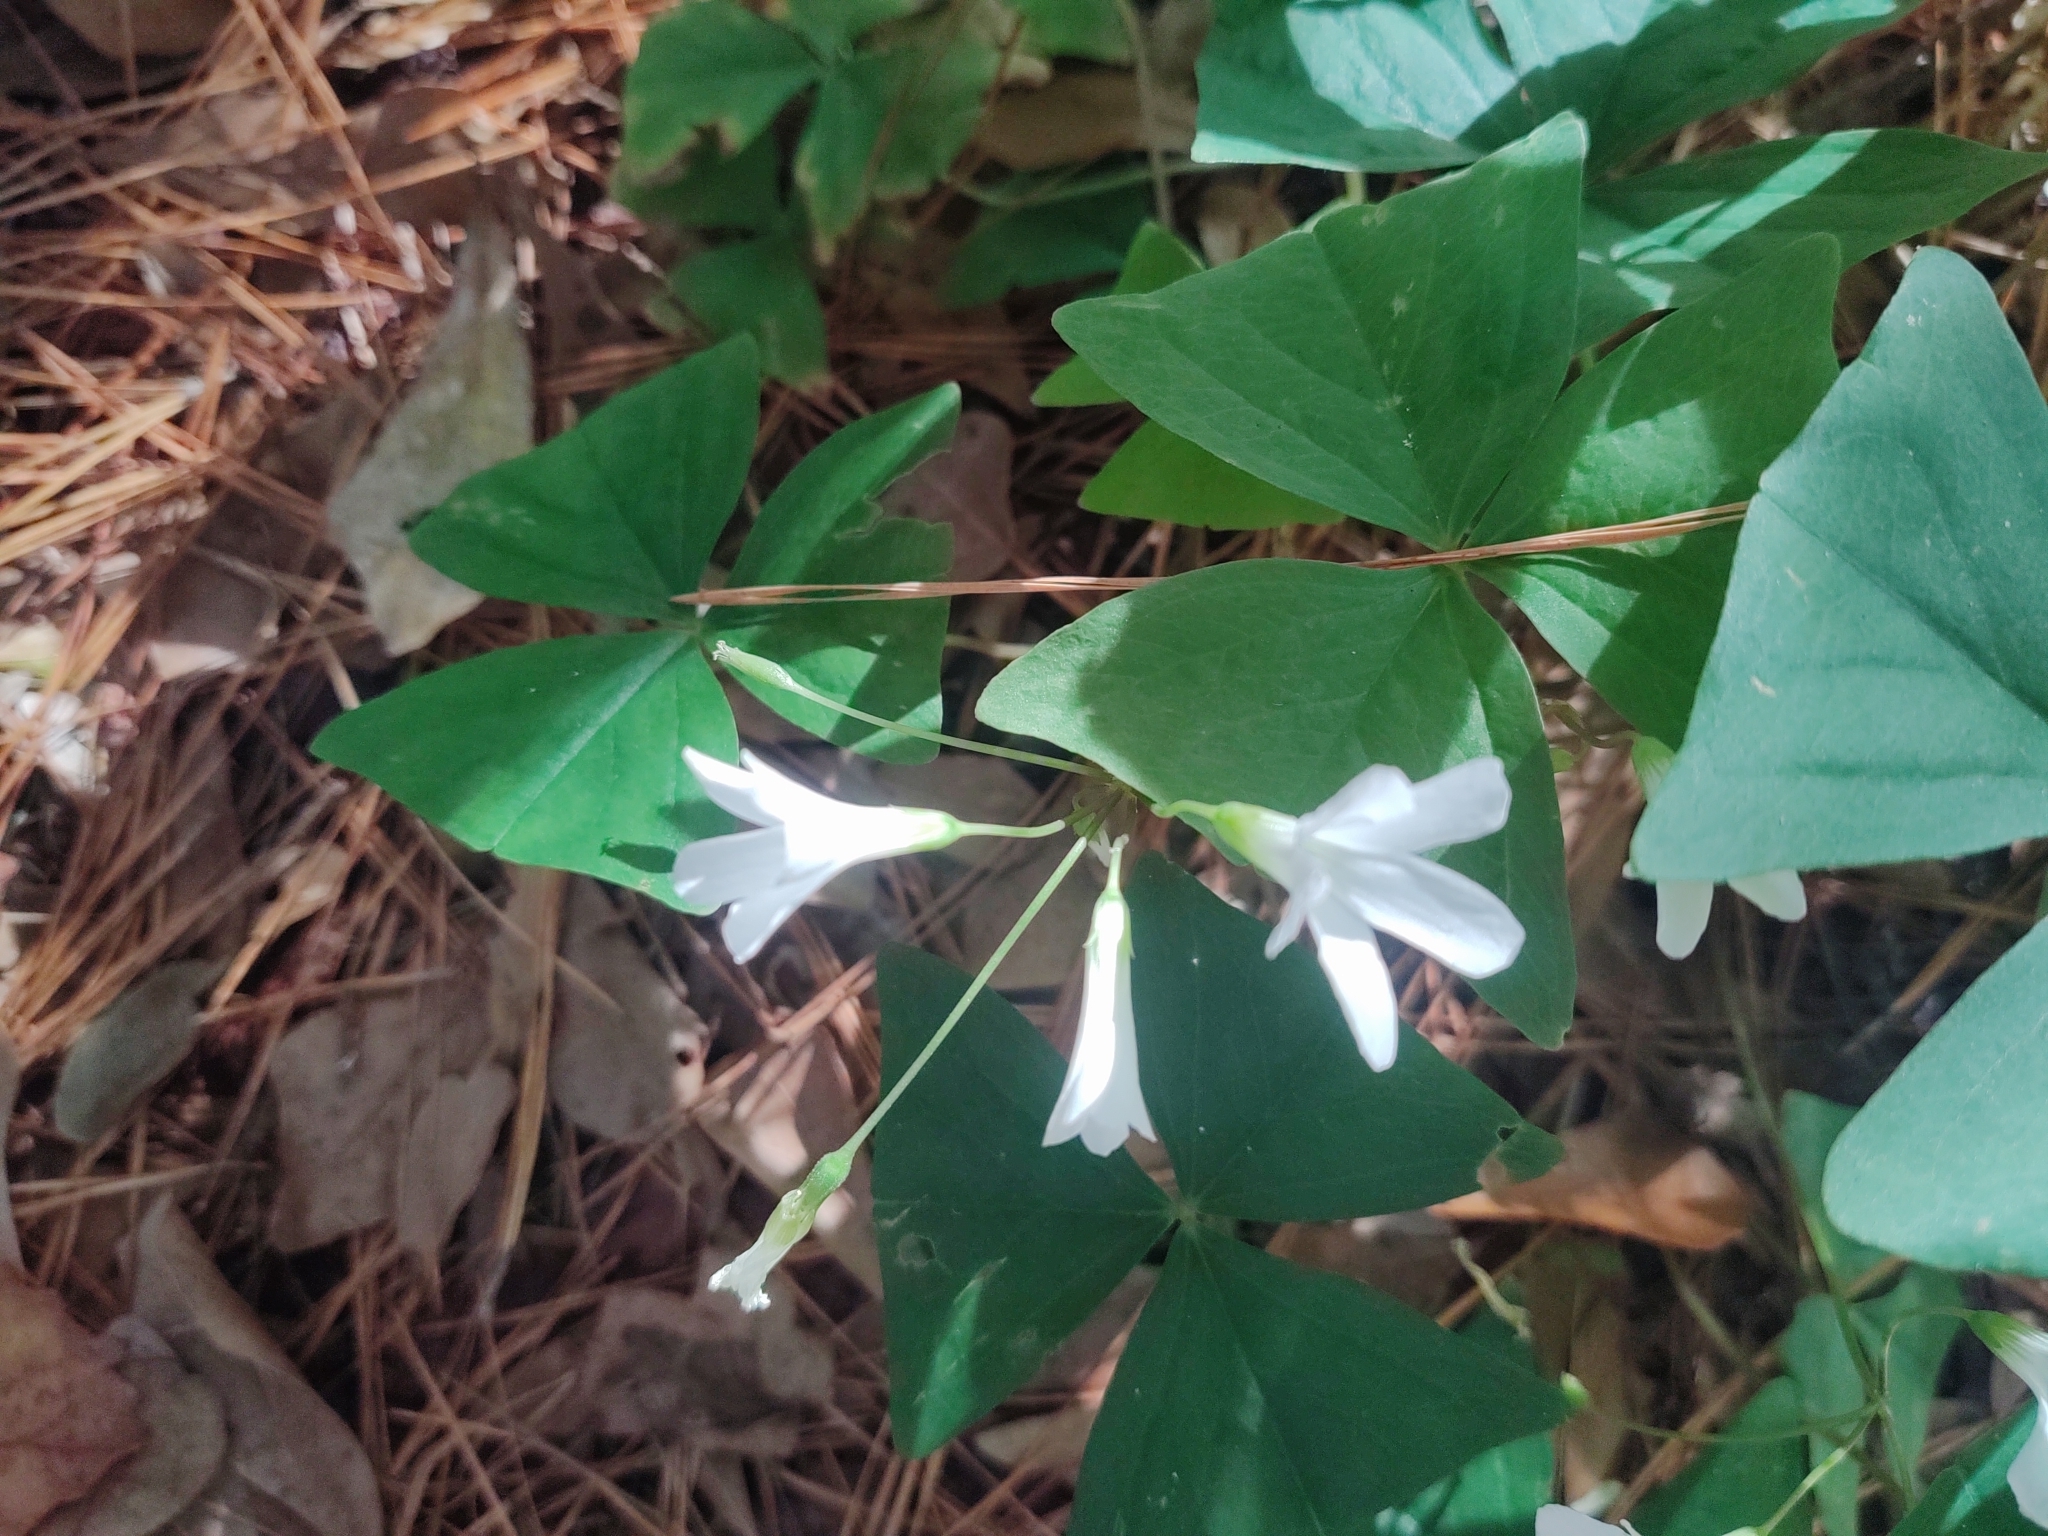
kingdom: Plantae
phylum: Tracheophyta
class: Magnoliopsida
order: Oxalidales
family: Oxalidaceae
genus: Oxalis
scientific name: Oxalis triangularis
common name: Wood sorrel
